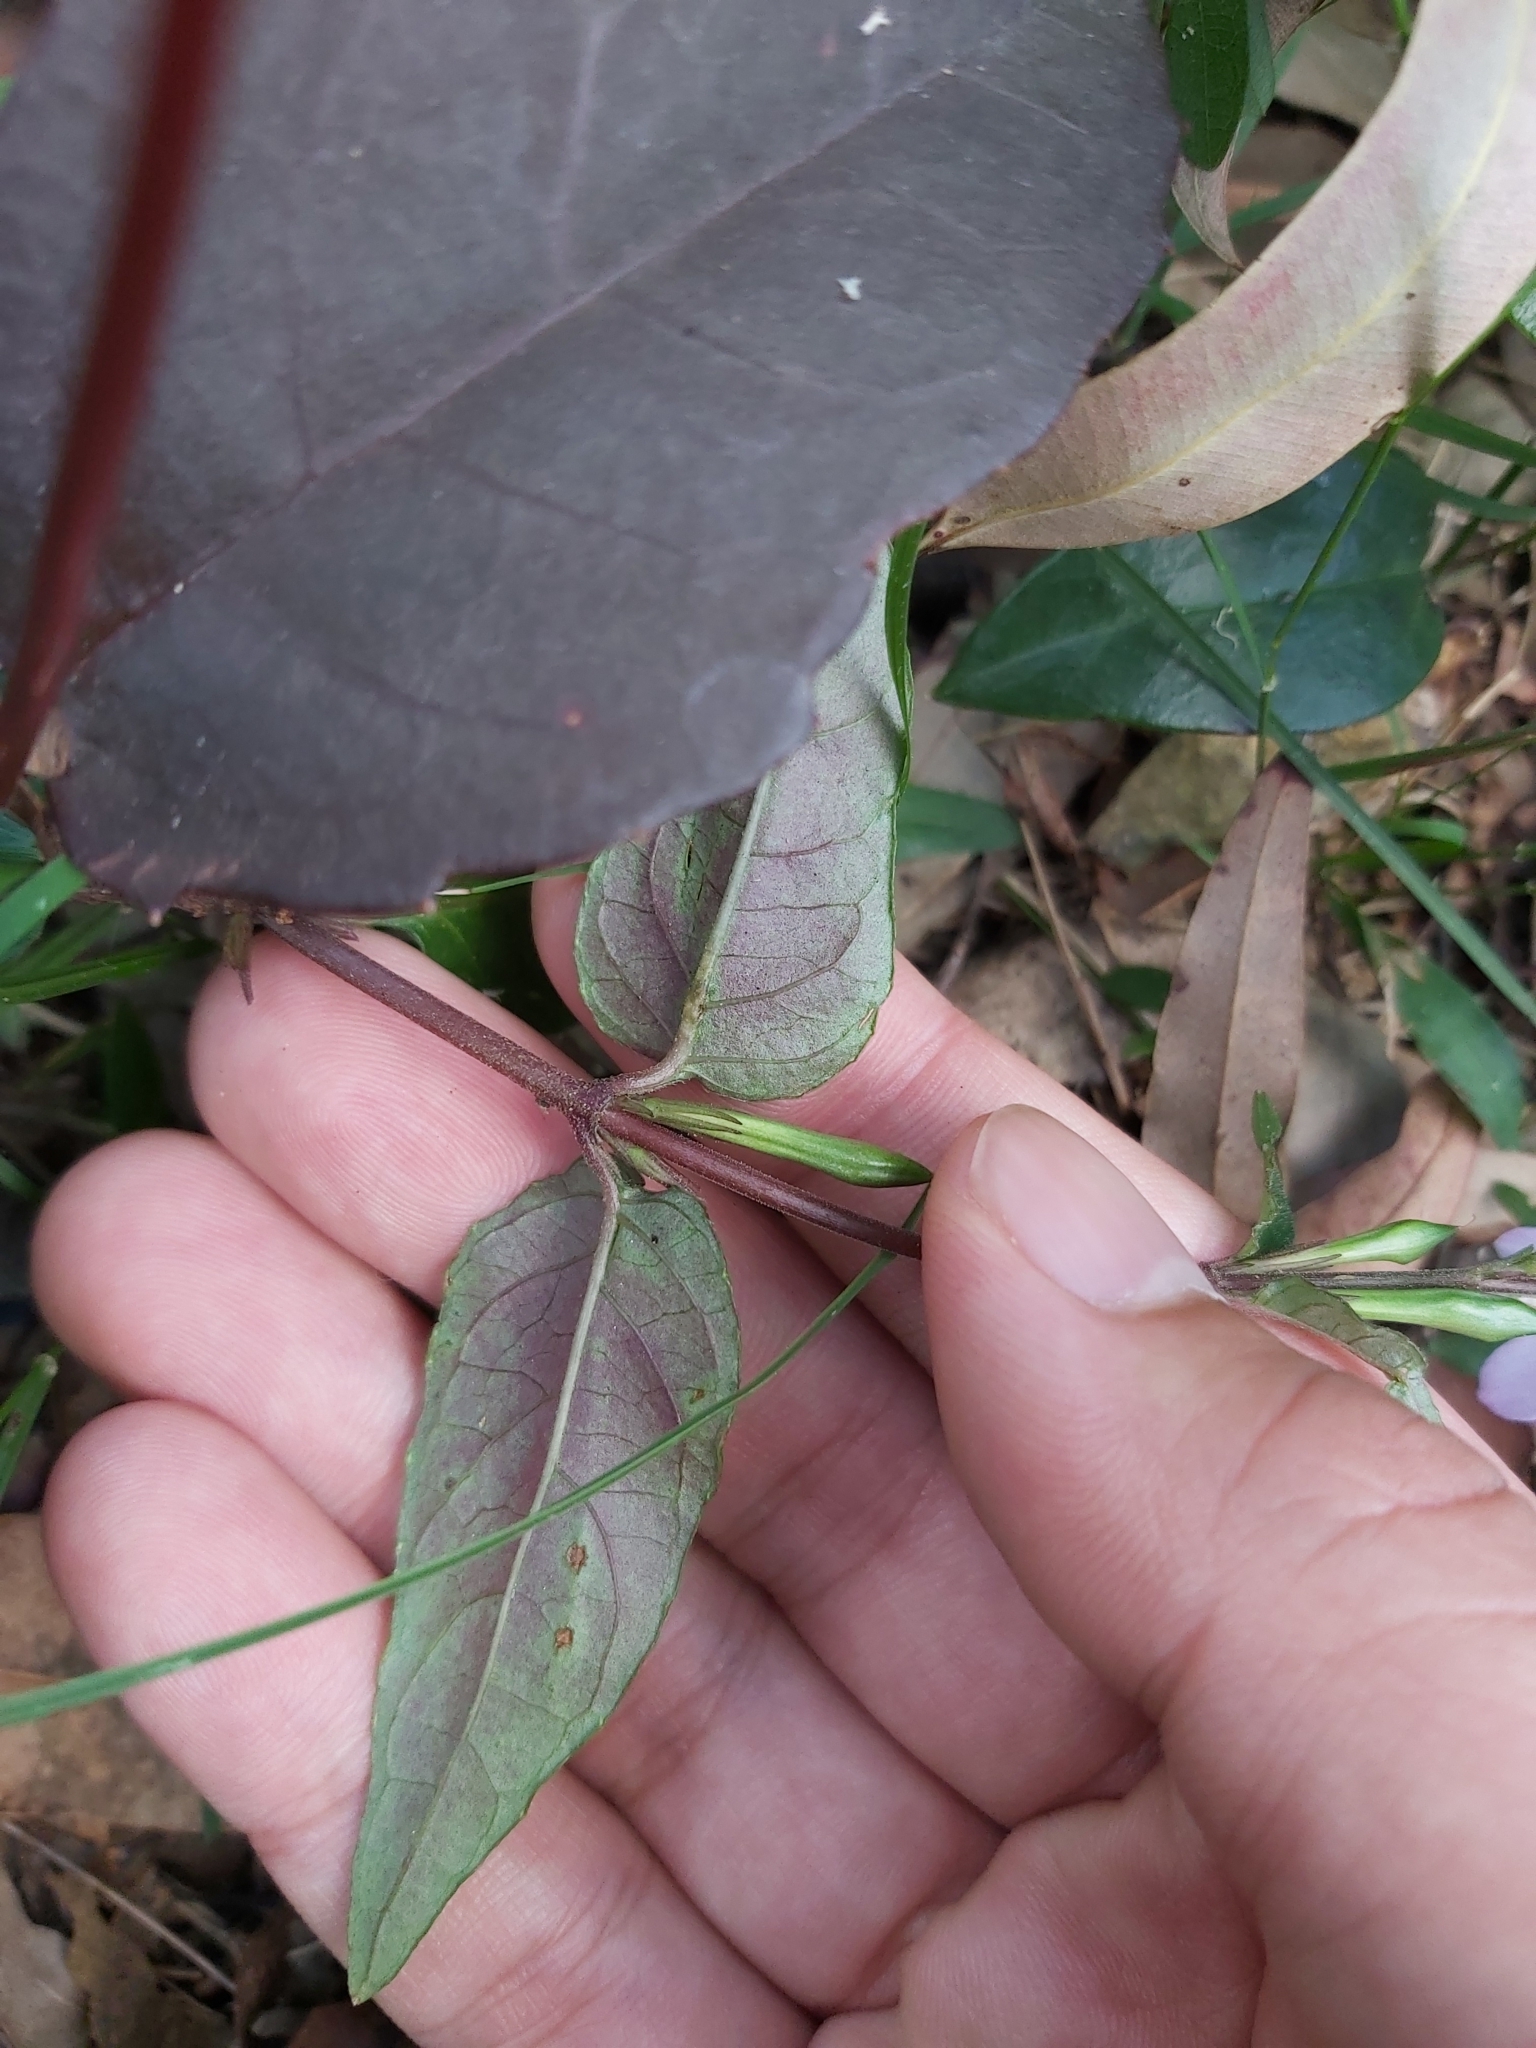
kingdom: Plantae
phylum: Tracheophyta
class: Magnoliopsida
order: Lamiales
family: Acanthaceae
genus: Pseuderanthemum
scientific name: Pseuderanthemum variabile
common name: Night and afternoon
